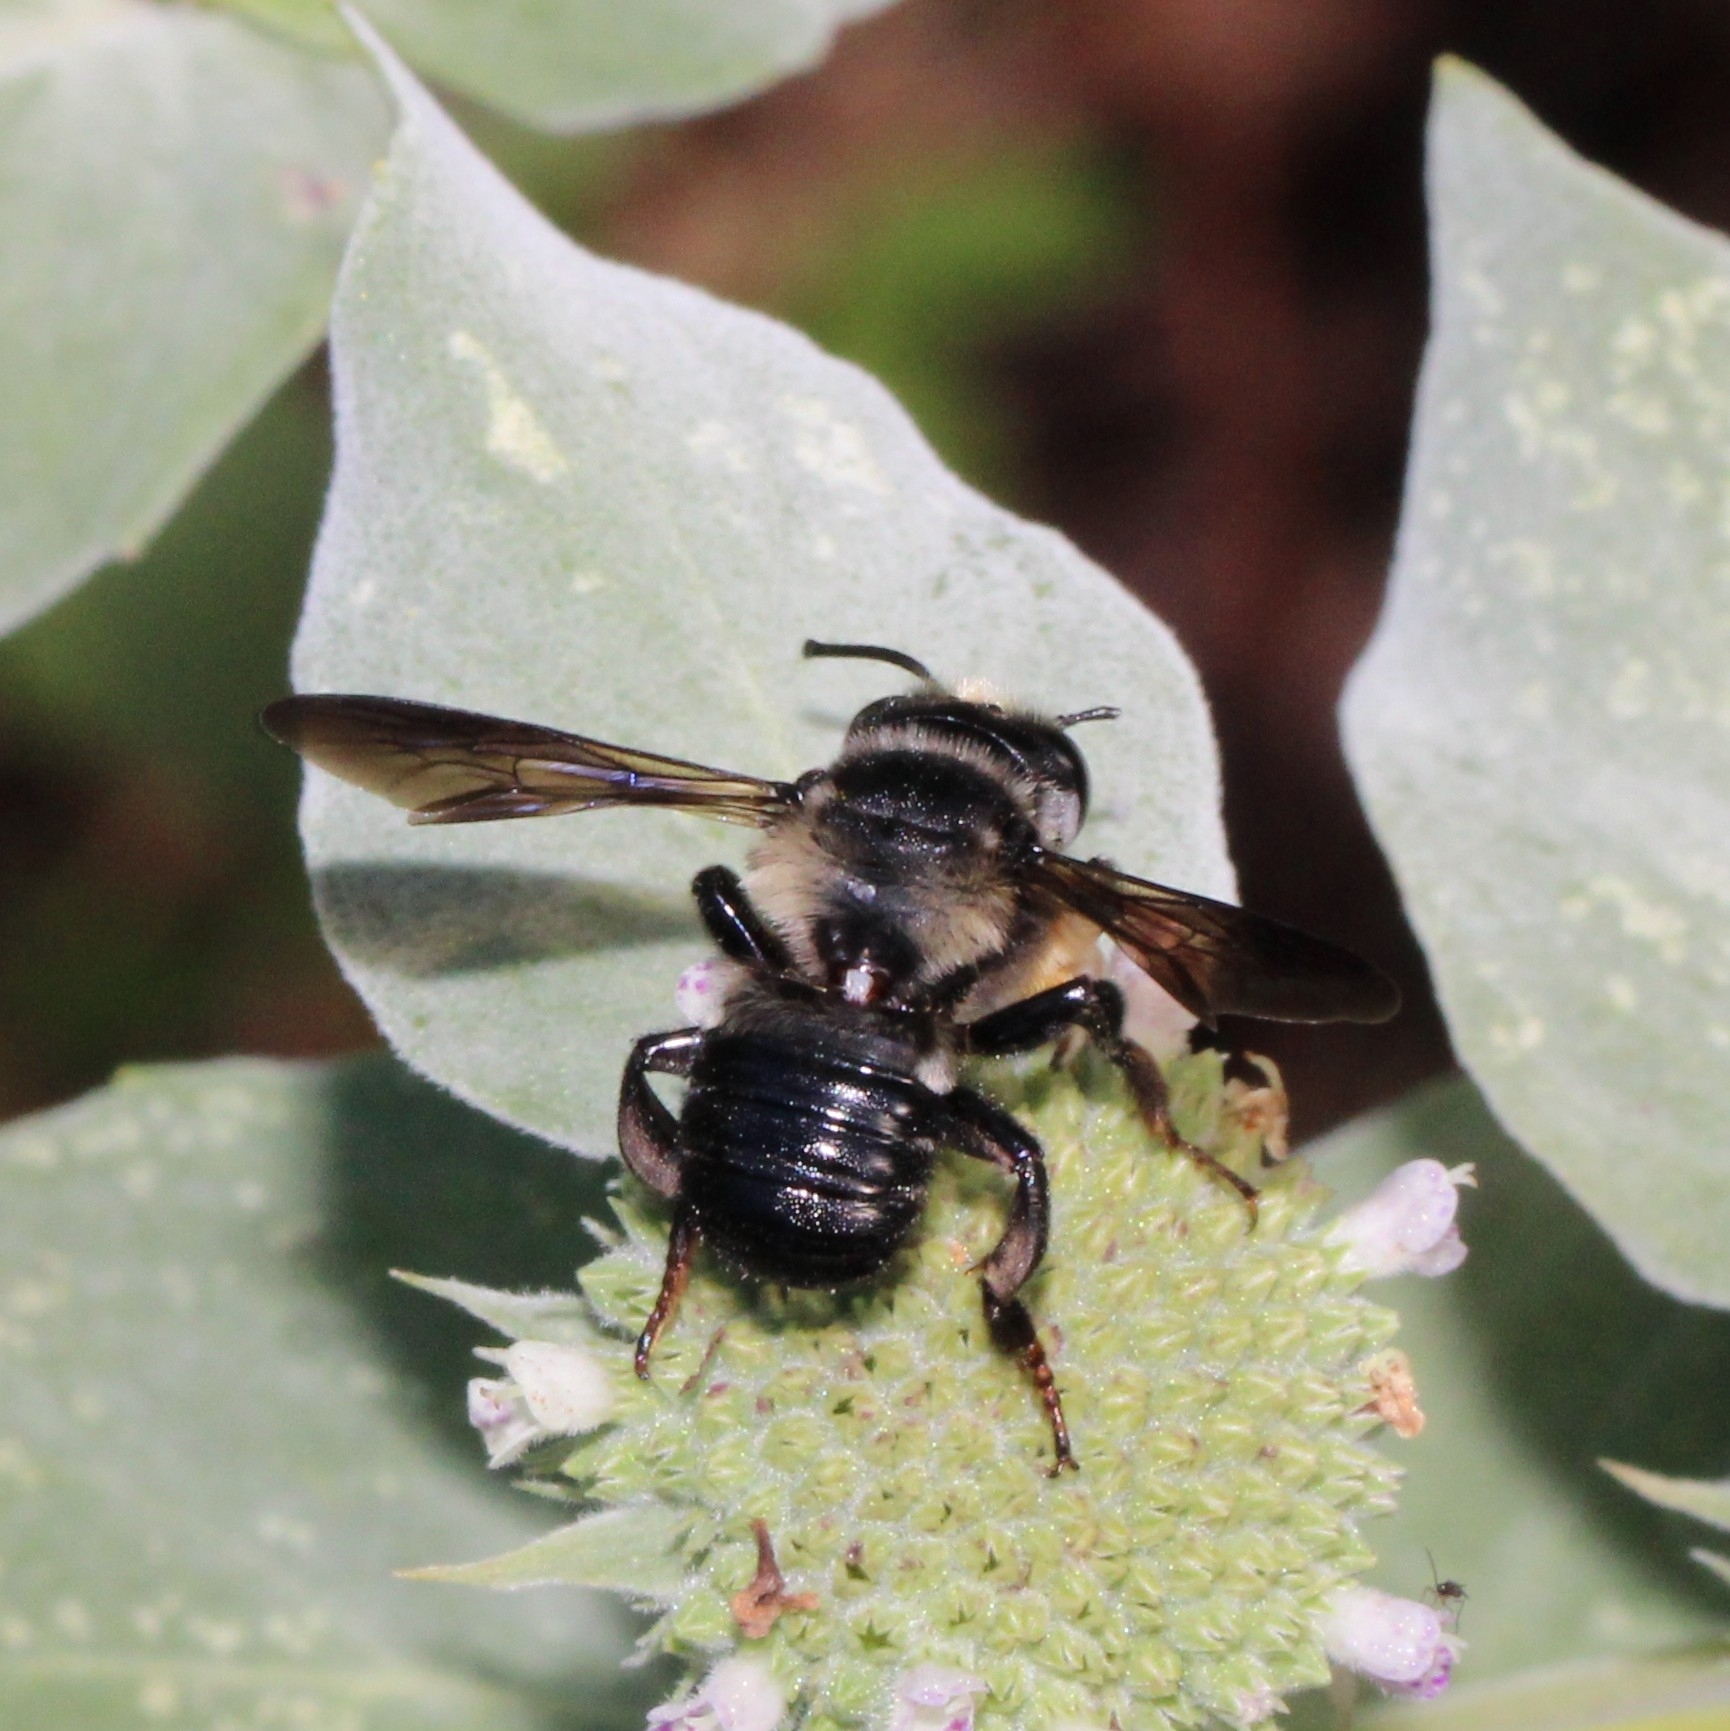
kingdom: Animalia
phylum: Arthropoda
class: Insecta
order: Hymenoptera
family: Megachilidae
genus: Megachile
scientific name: Megachile xylocopoides
